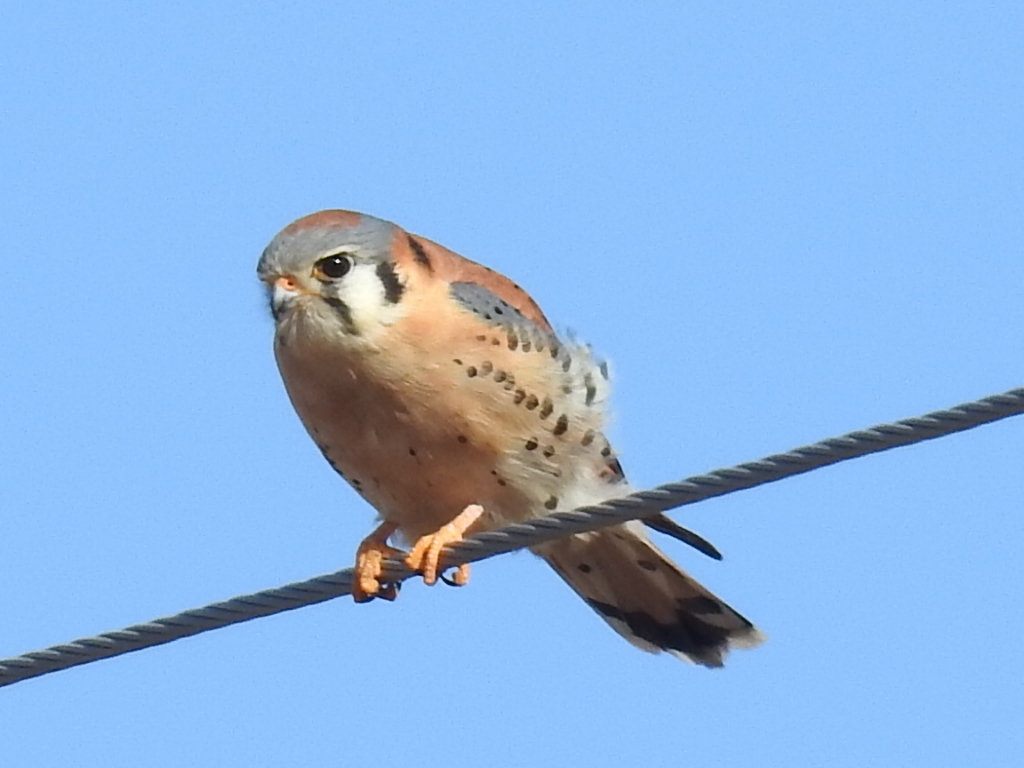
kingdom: Animalia
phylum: Chordata
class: Aves
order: Falconiformes
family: Falconidae
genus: Falco
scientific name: Falco sparverius
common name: American kestrel
